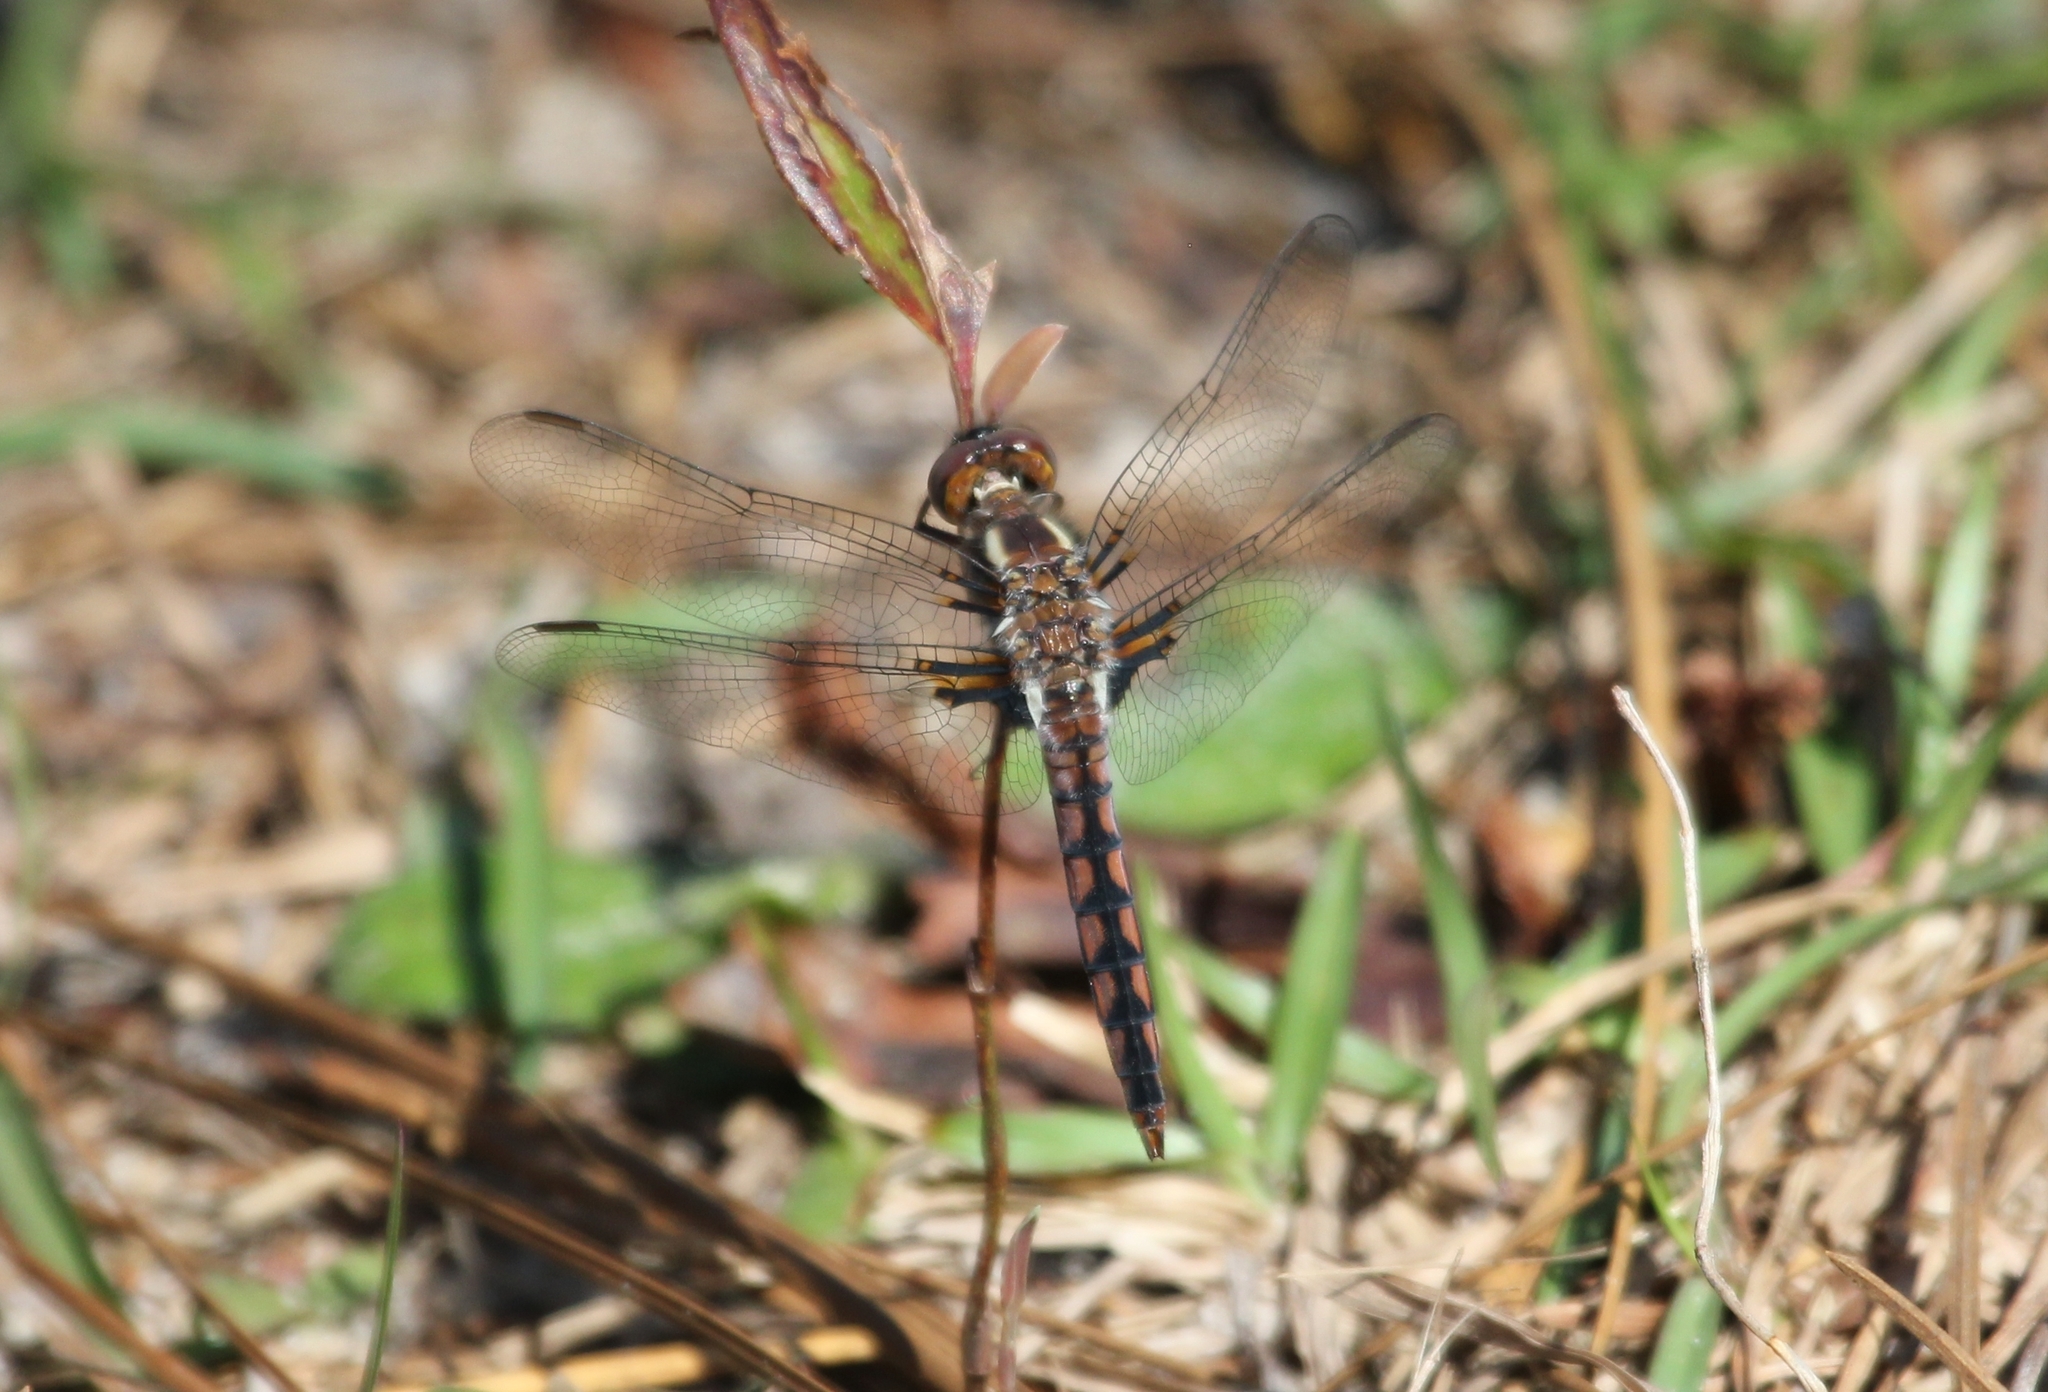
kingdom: Animalia
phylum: Arthropoda
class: Insecta
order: Odonata
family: Libellulidae
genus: Ladona
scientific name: Ladona deplanata
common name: Blue corporal
